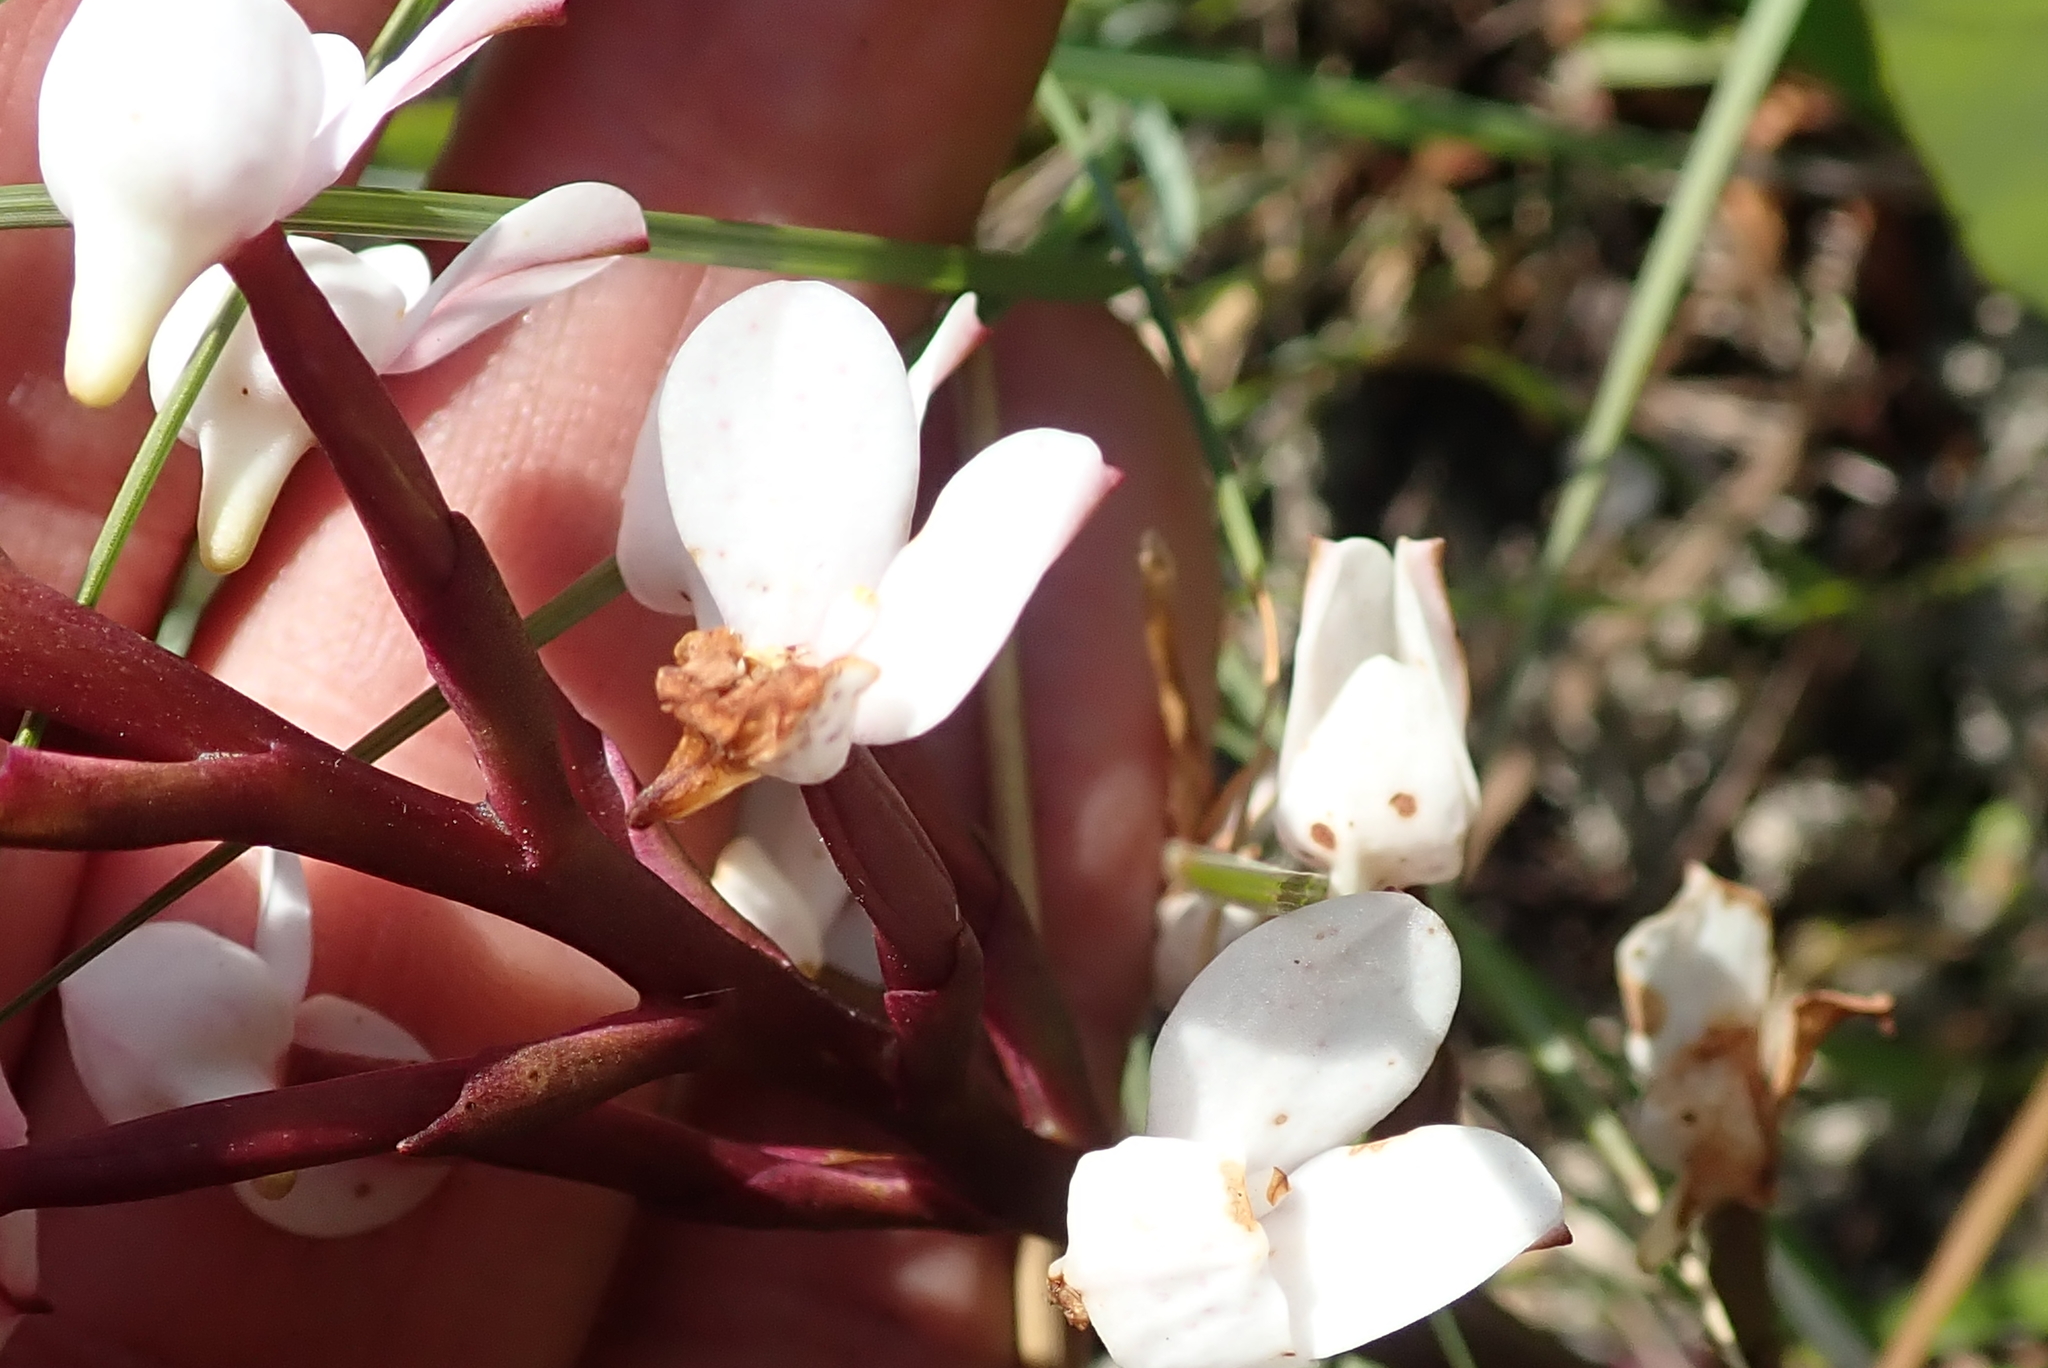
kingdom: Plantae
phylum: Tracheophyta
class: Liliopsida
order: Asparagales
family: Orchidaceae
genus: Disa
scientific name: Disa tripetaloides
